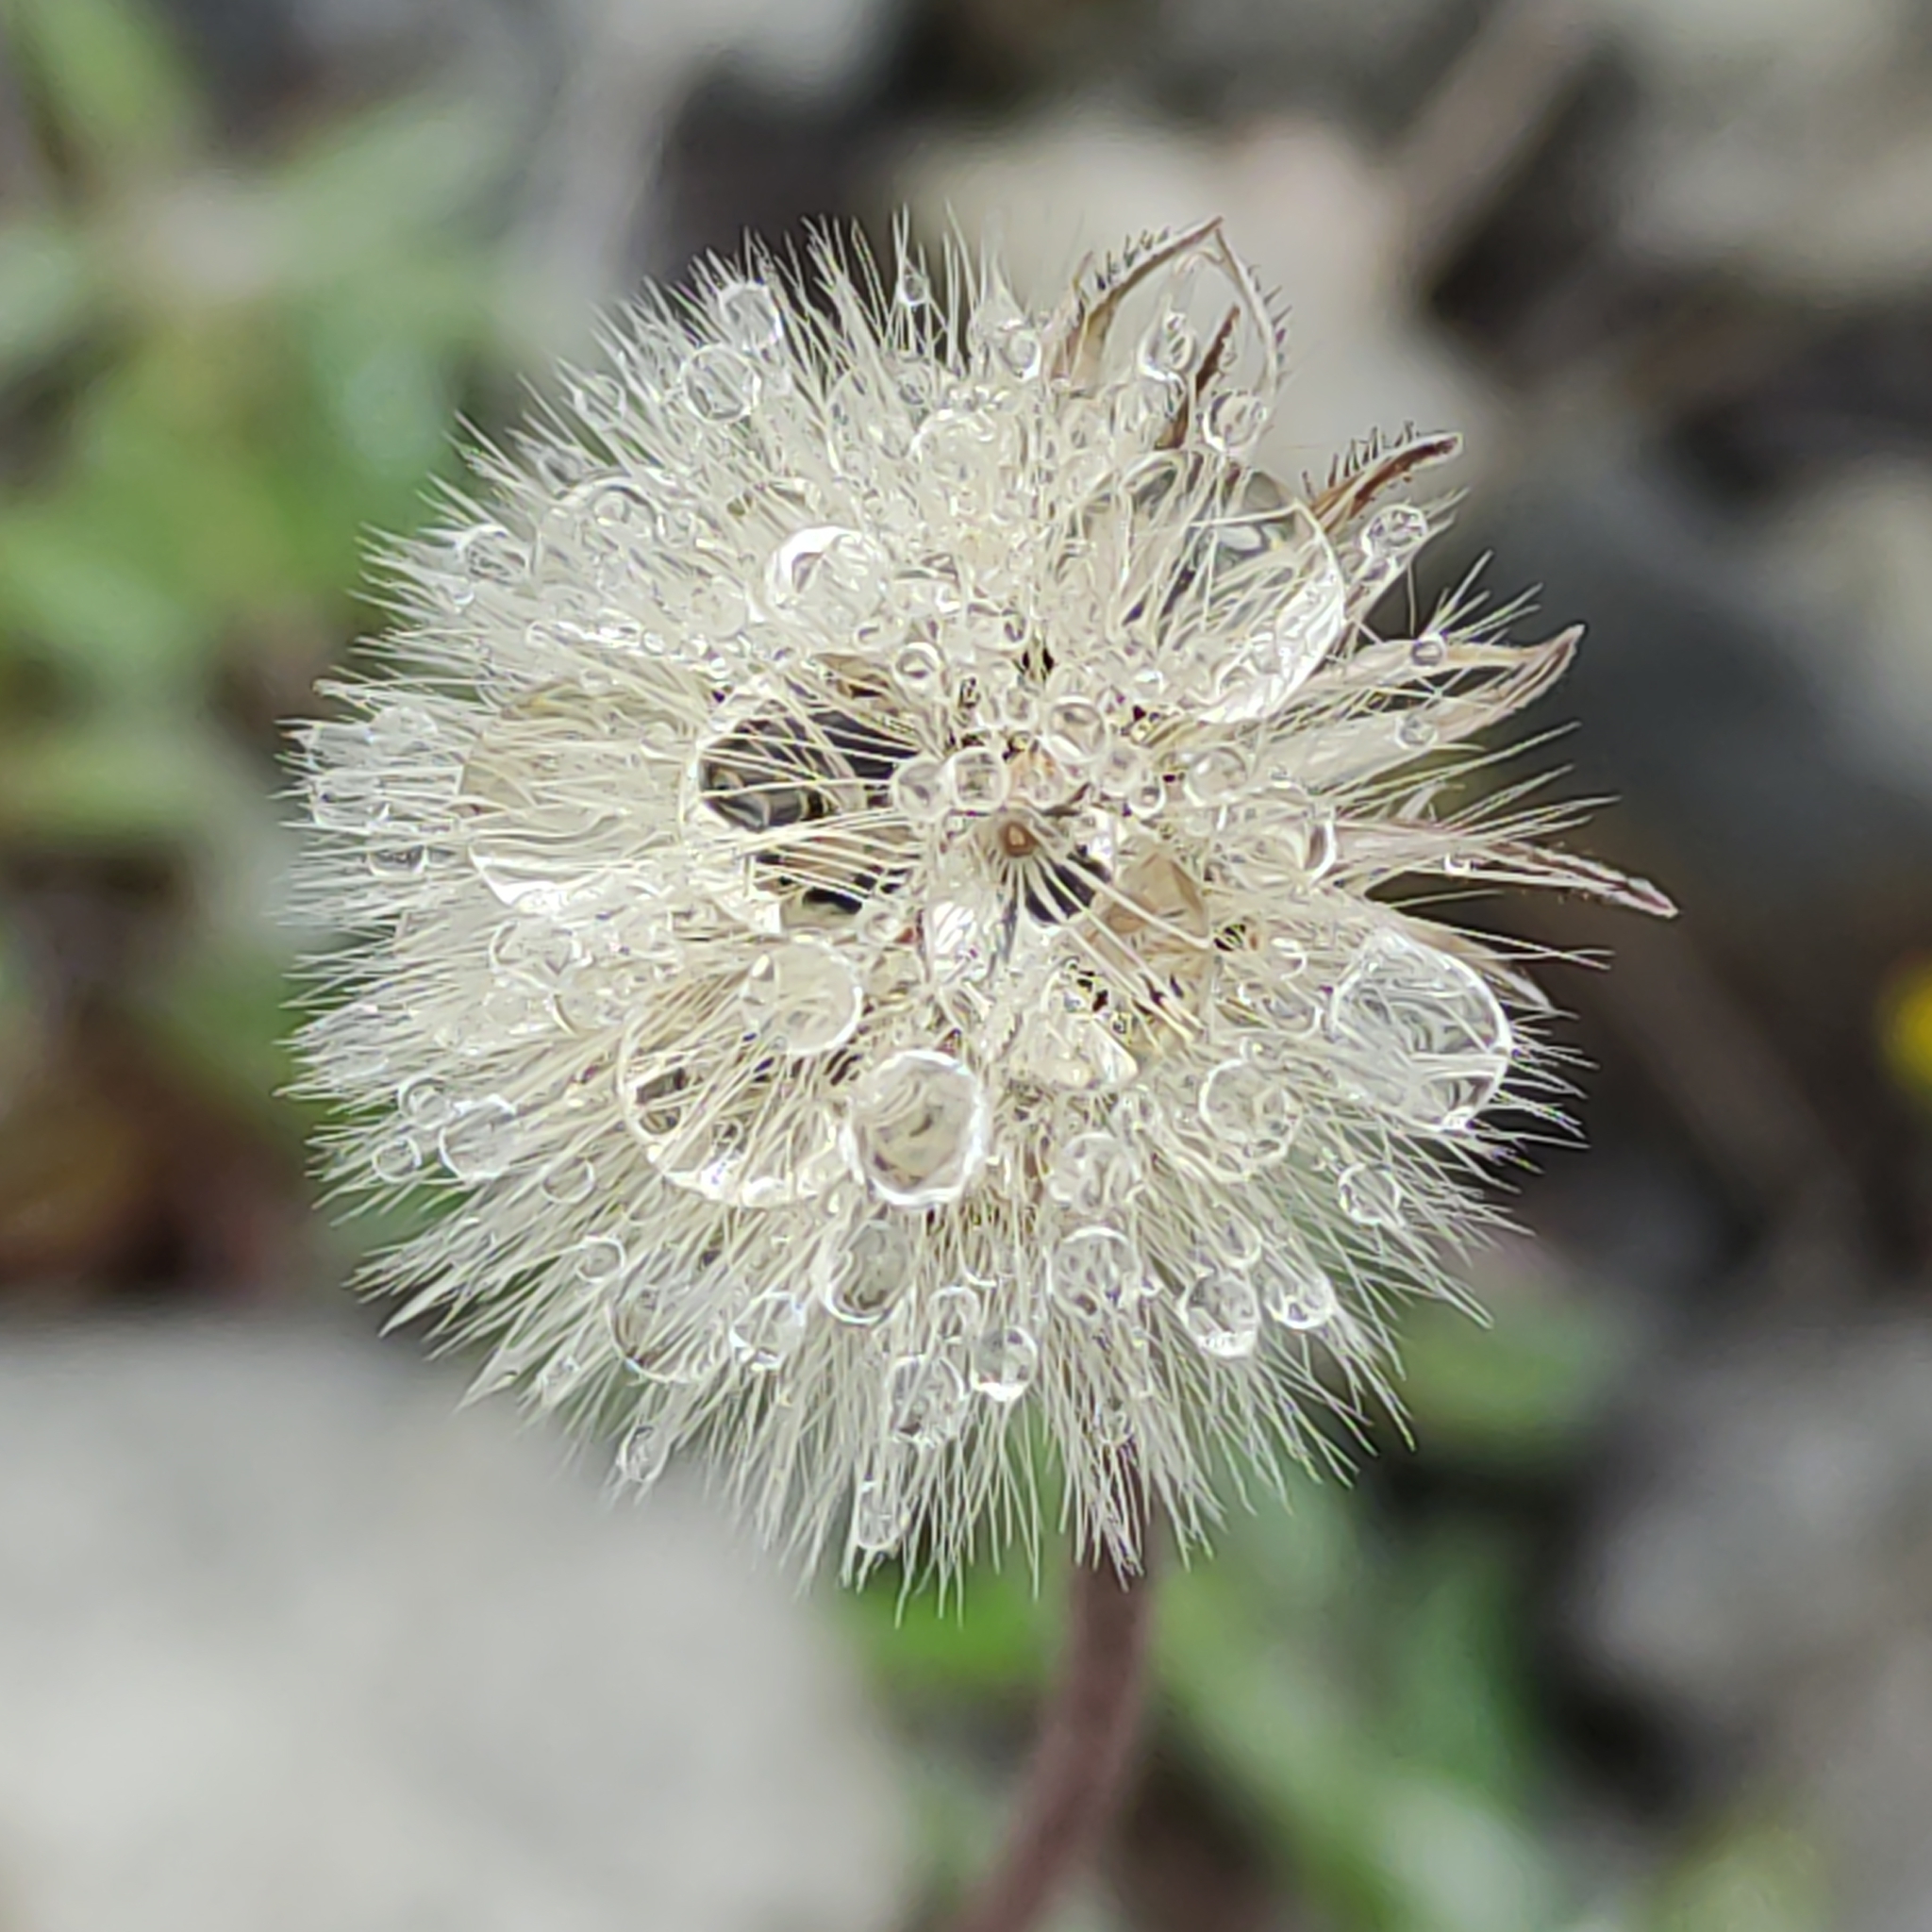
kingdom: Plantae
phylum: Tracheophyta
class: Magnoliopsida
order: Asterales
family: Asteraceae
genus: Pilosella
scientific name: Pilosella officinarum
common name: Mouse-ear hawkweed
